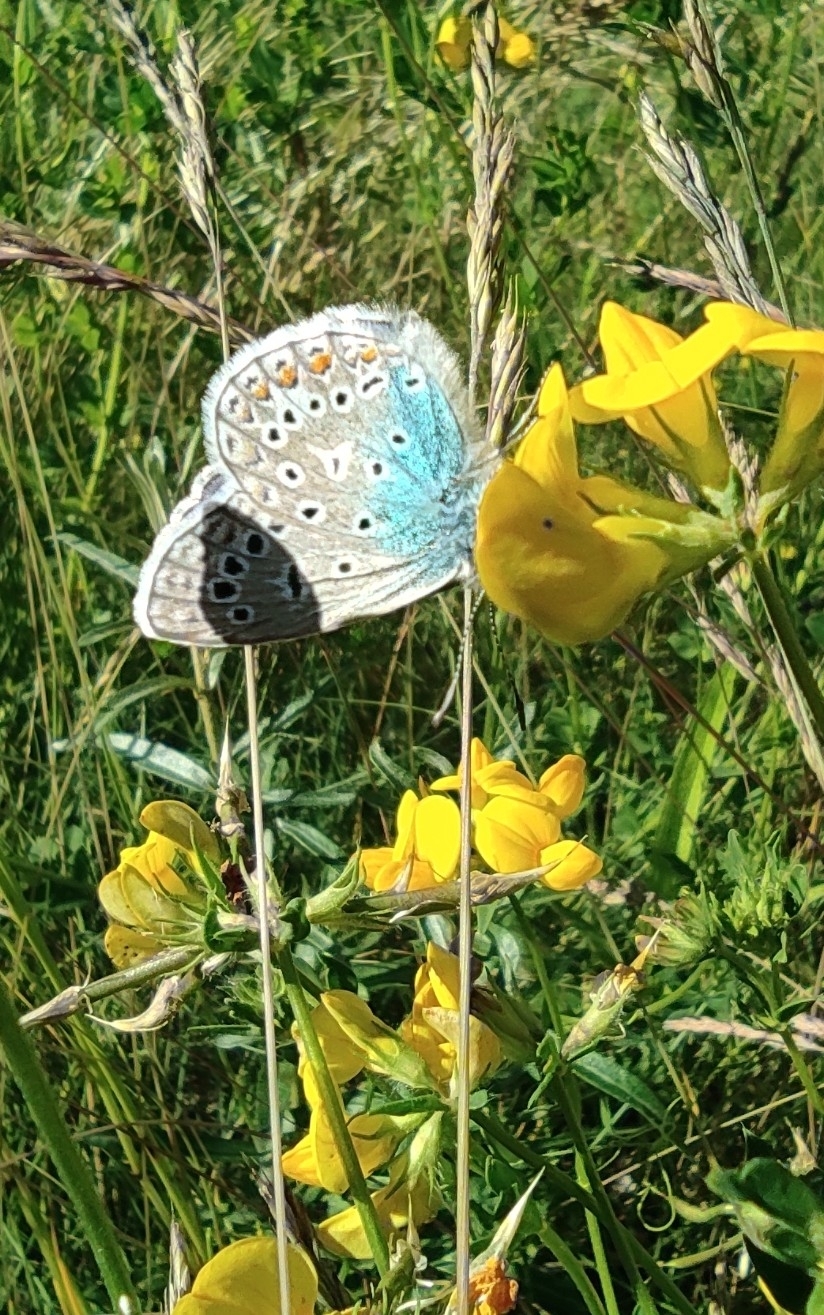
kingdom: Animalia
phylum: Arthropoda
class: Insecta
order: Lepidoptera
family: Lycaenidae
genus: Polyommatus
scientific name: Polyommatus icarus
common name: Common blue
